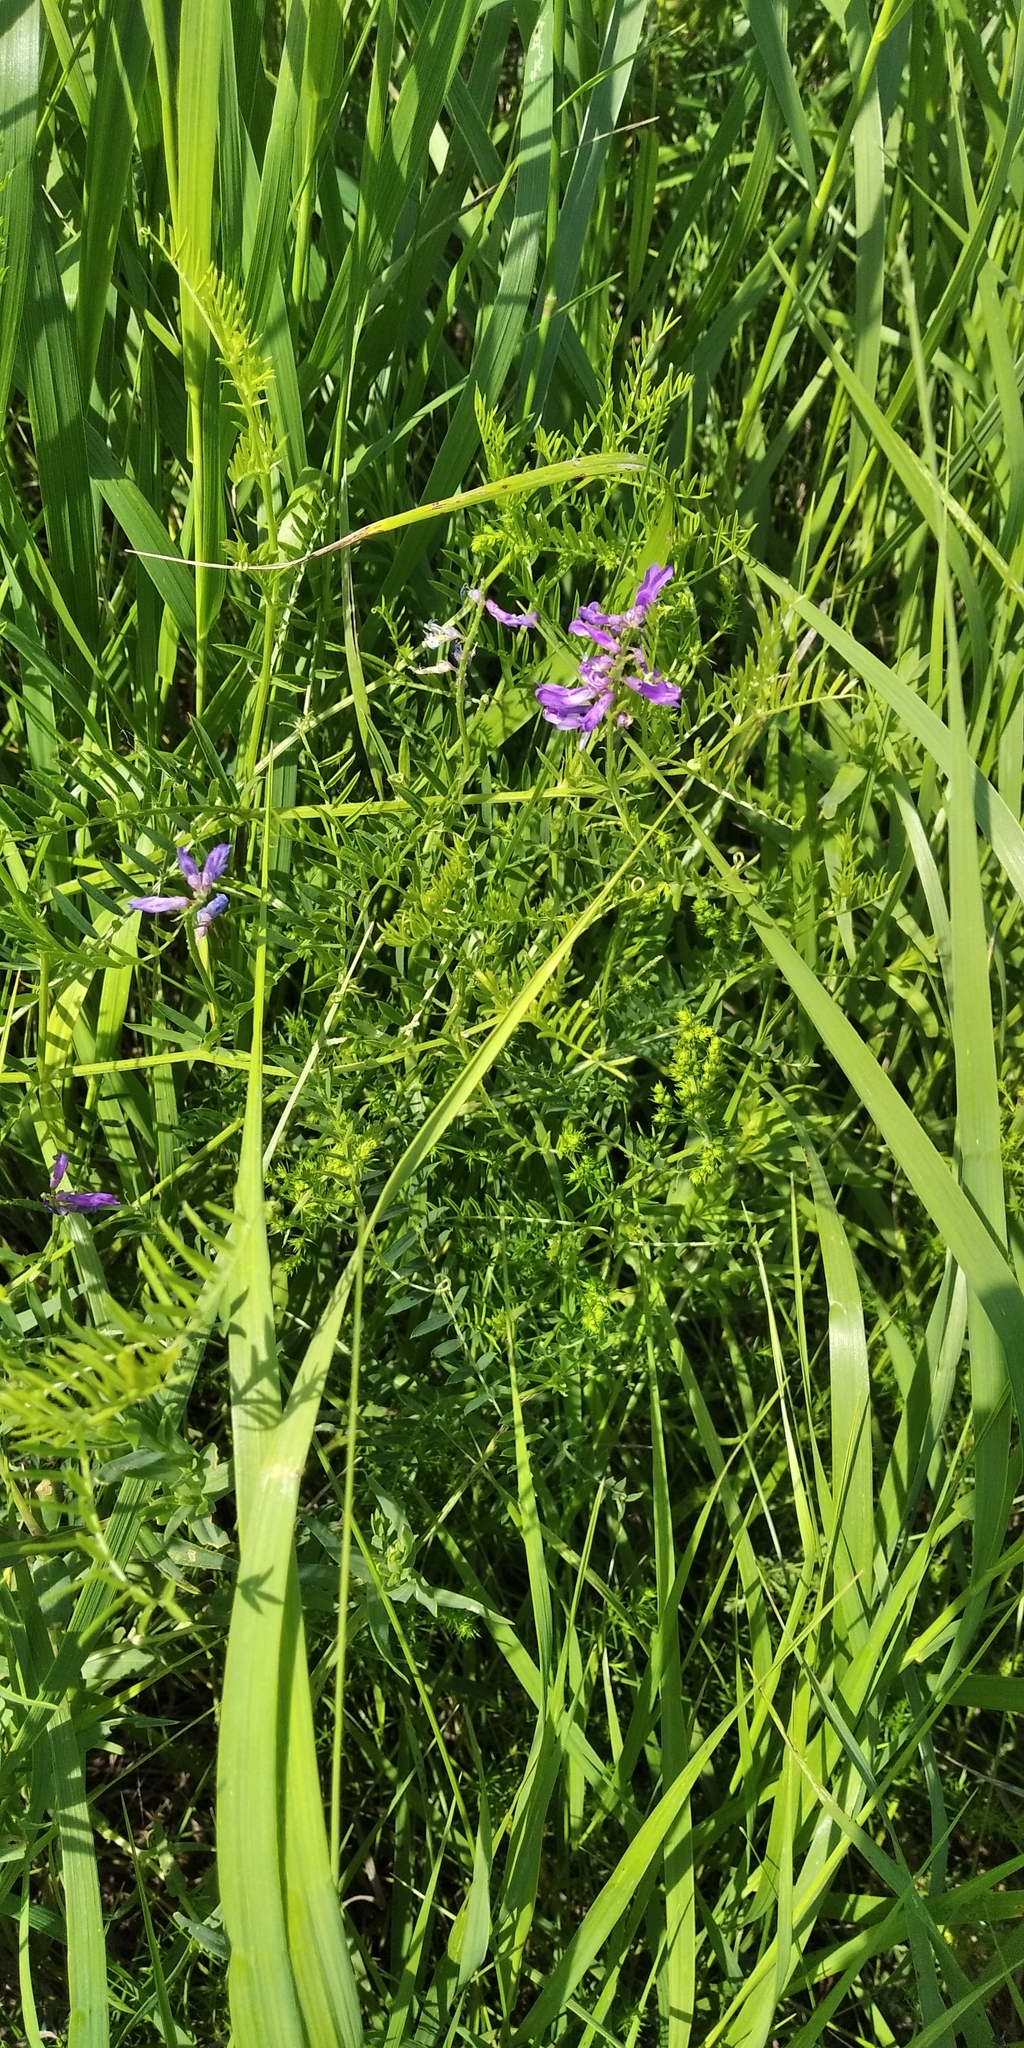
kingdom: Plantae
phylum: Tracheophyta
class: Magnoliopsida
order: Fabales
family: Fabaceae
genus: Vicia
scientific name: Vicia cracca
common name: Bird vetch
